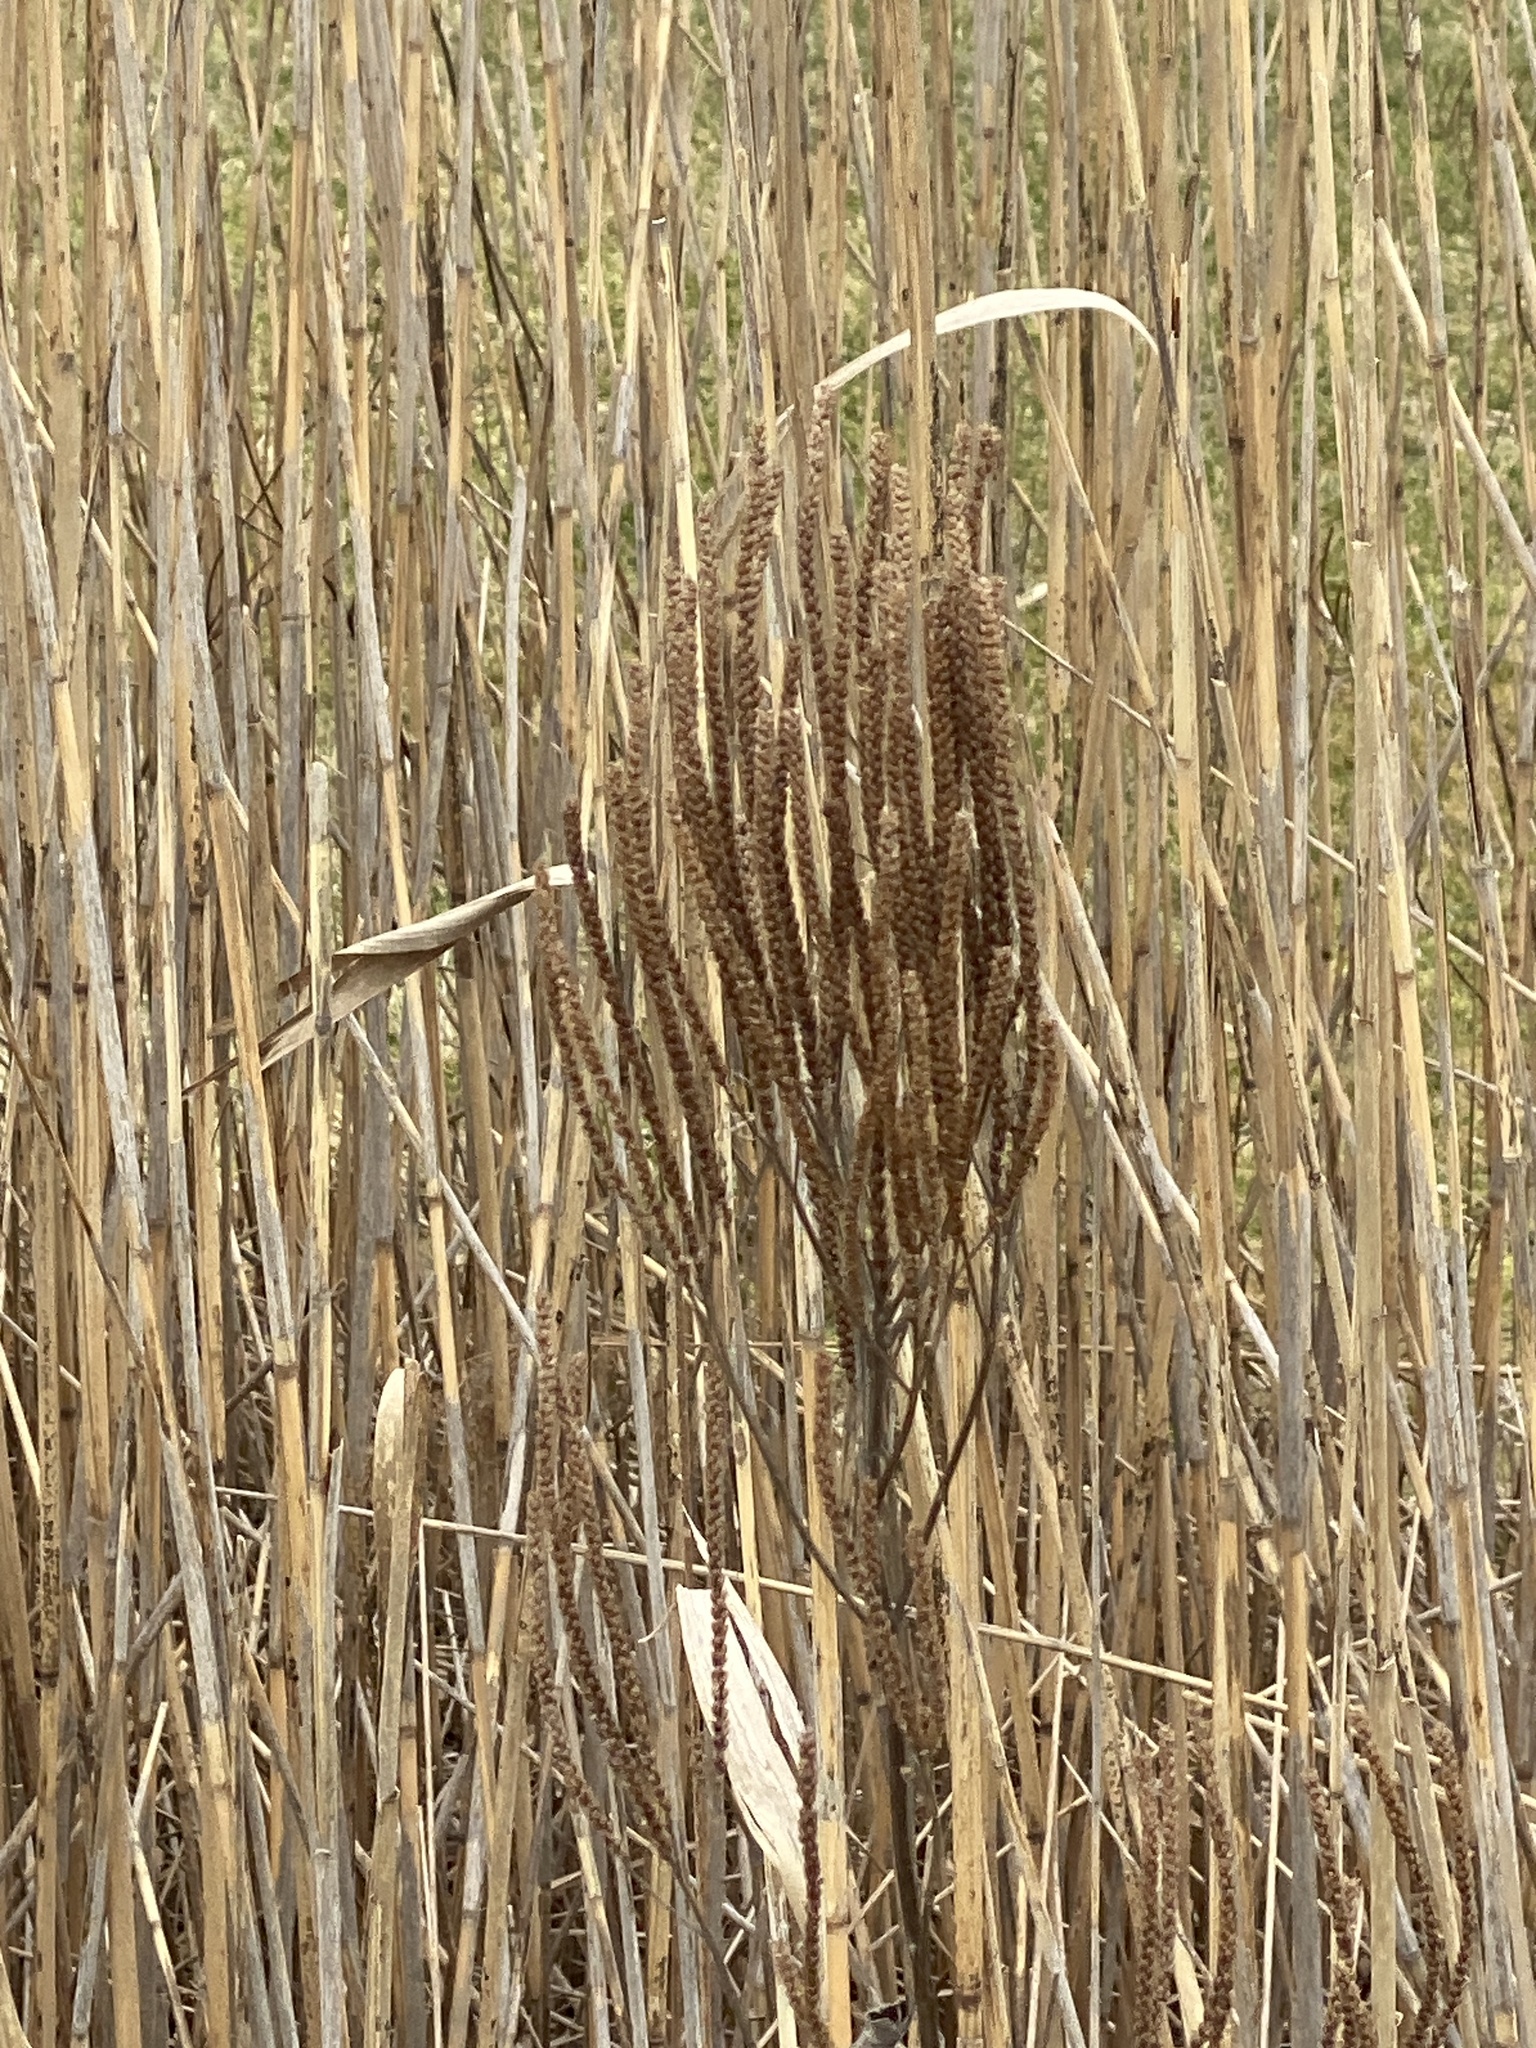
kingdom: Plantae
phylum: Tracheophyta
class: Magnoliopsida
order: Lamiales
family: Verbenaceae
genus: Verbena
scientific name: Verbena hastata
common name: American blue vervain
